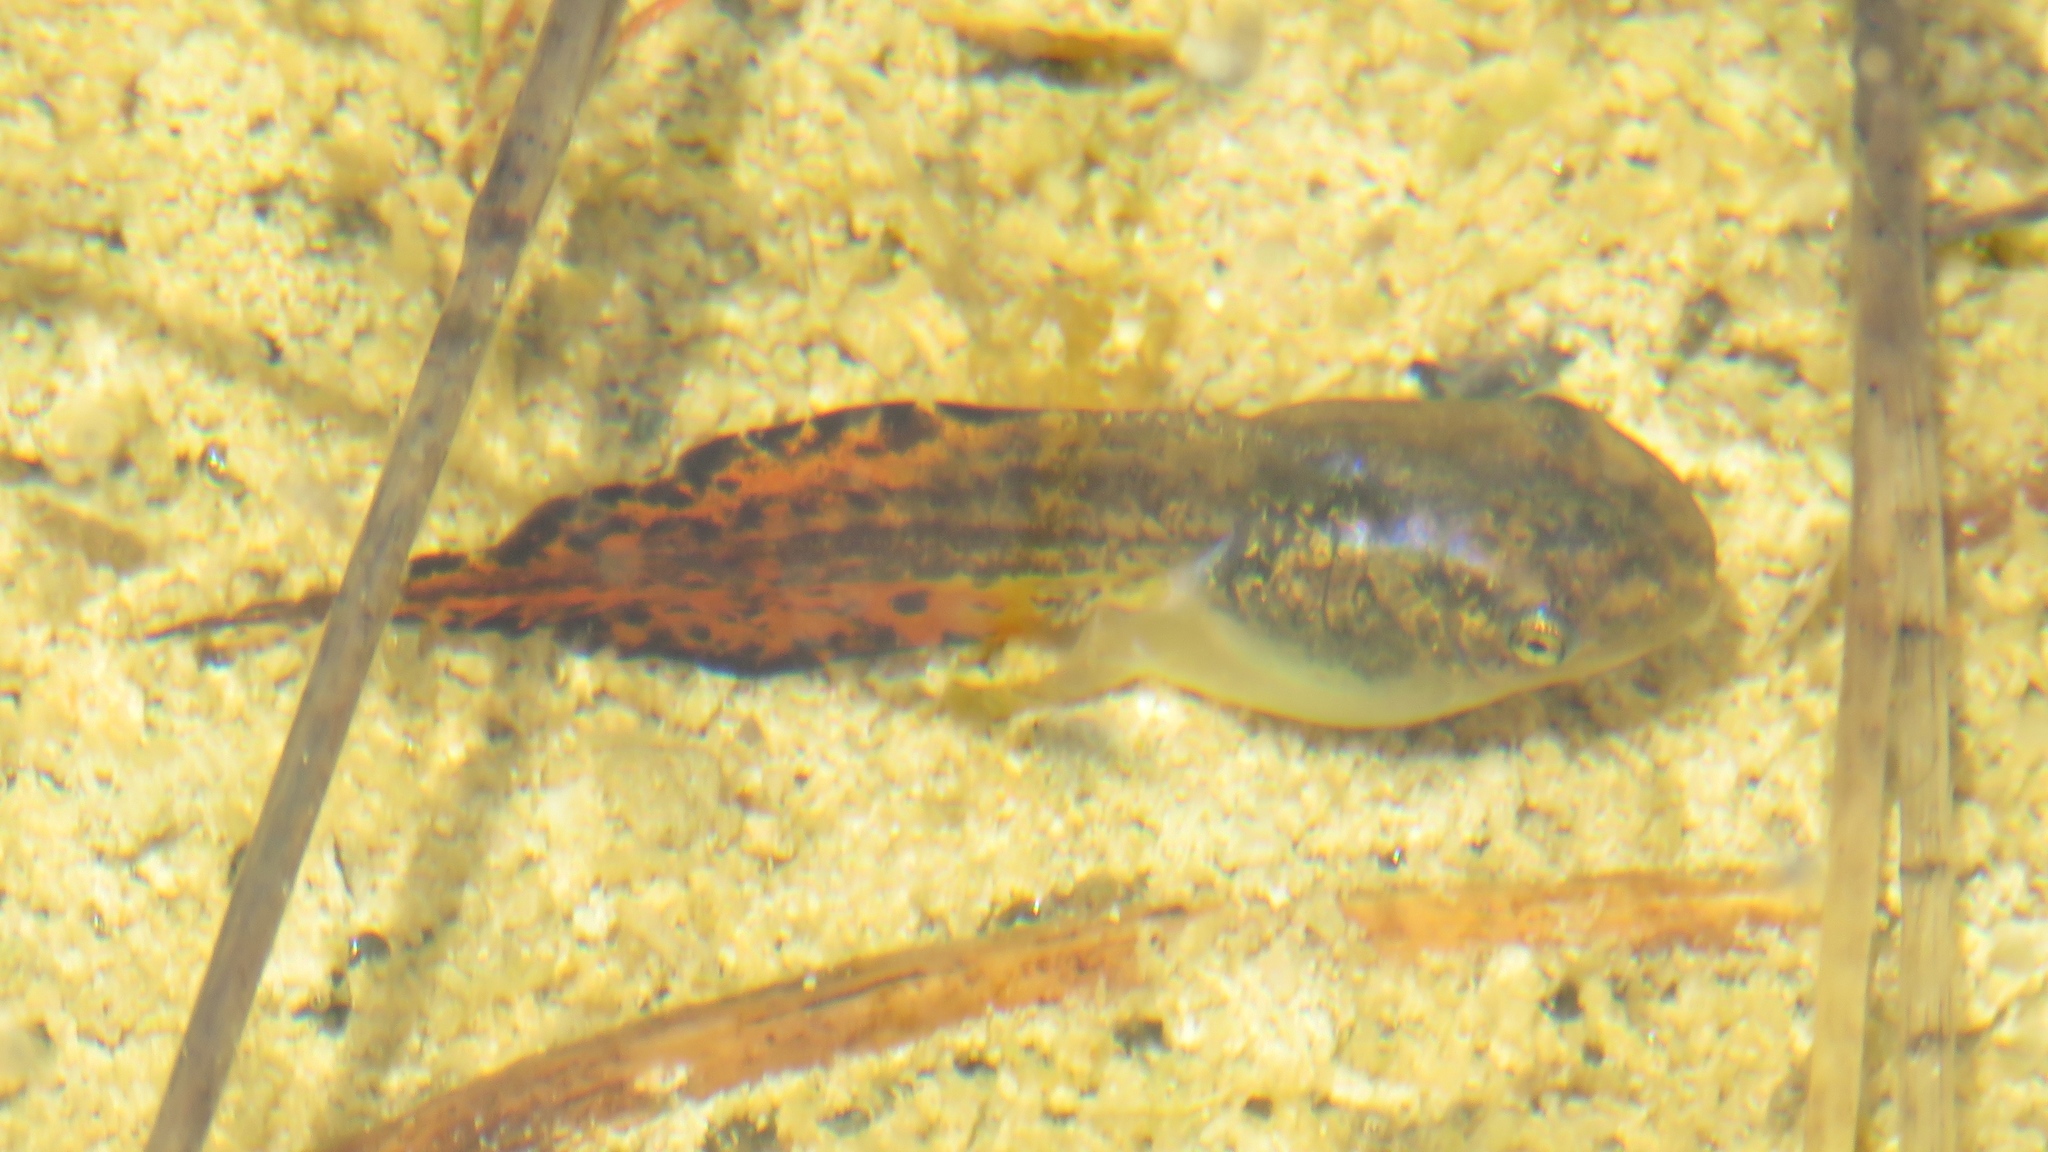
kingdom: Animalia
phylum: Chordata
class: Amphibia
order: Anura
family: Hylidae
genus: Dryophytes
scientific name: Dryophytes versicolor
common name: Gray treefrog
